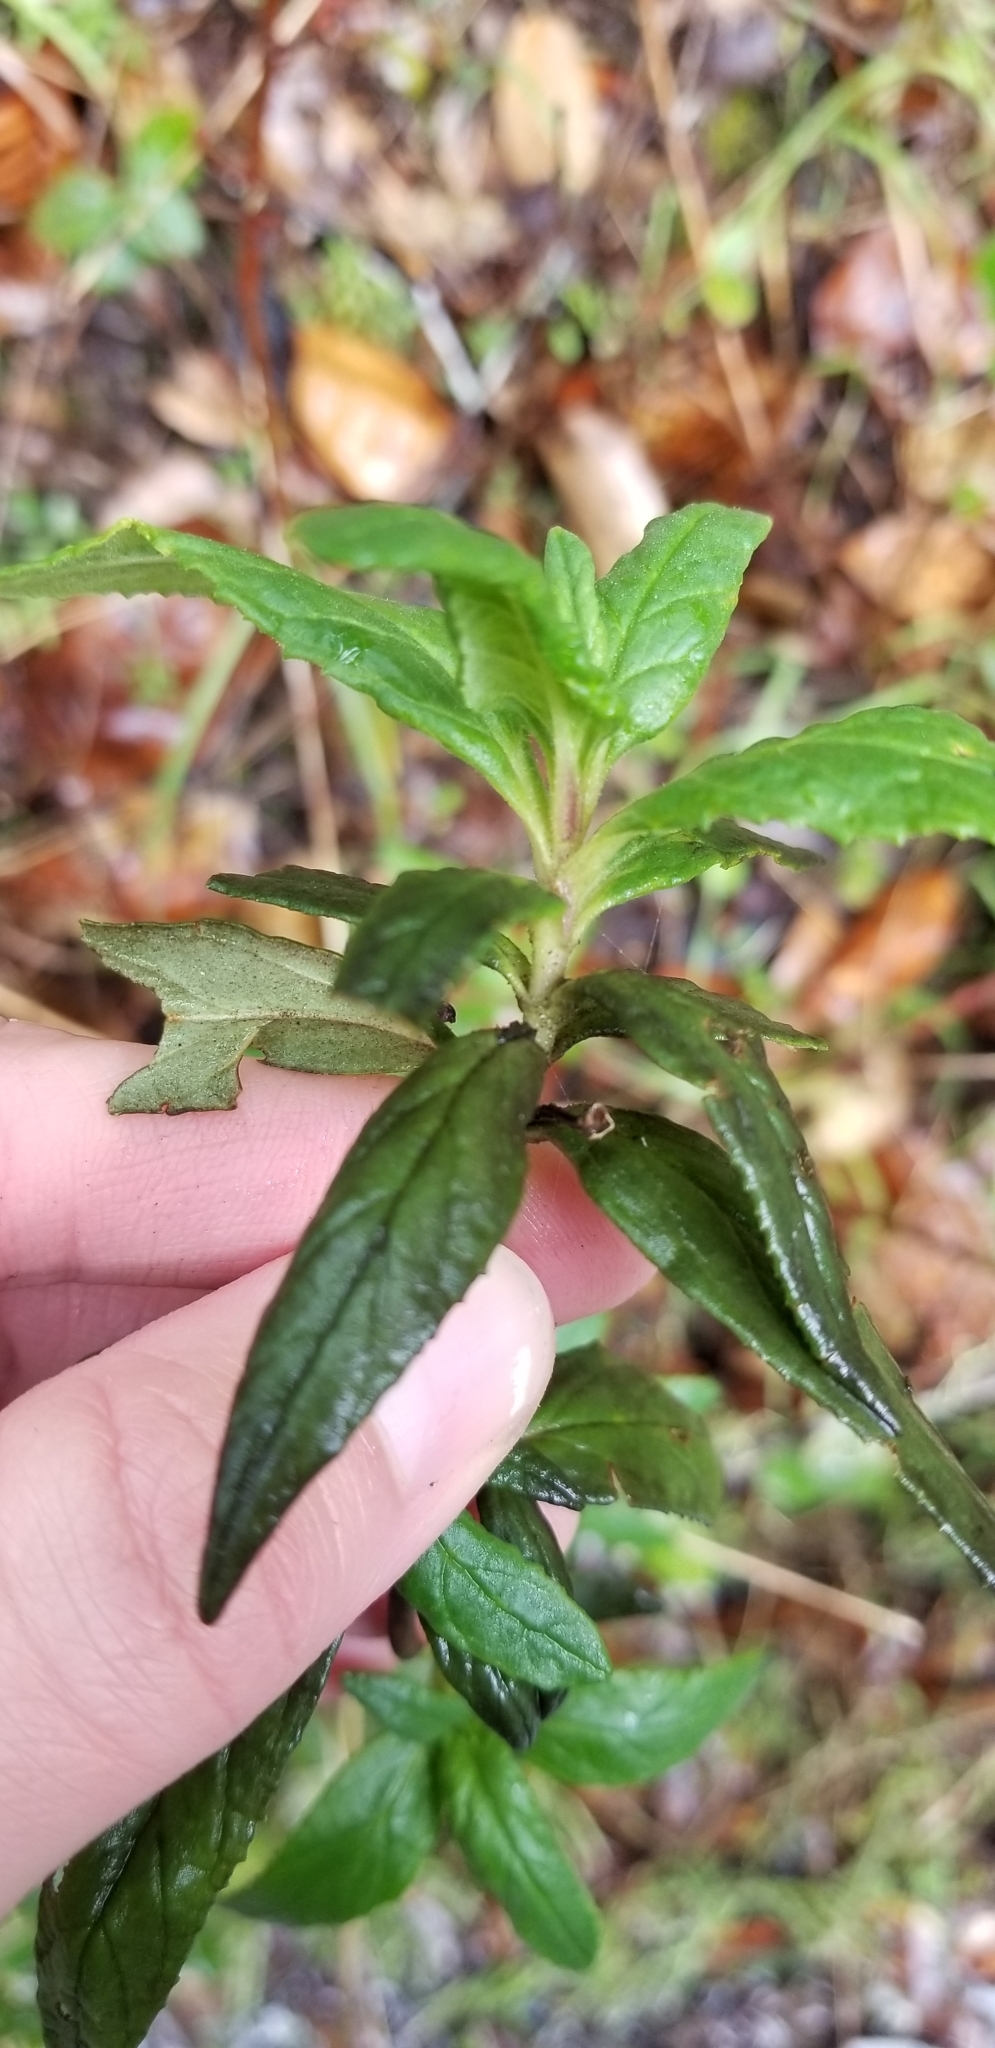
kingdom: Plantae
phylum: Tracheophyta
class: Magnoliopsida
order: Lamiales
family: Phrymaceae
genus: Diplacus
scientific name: Diplacus aurantiacus
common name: Bush monkey-flower
